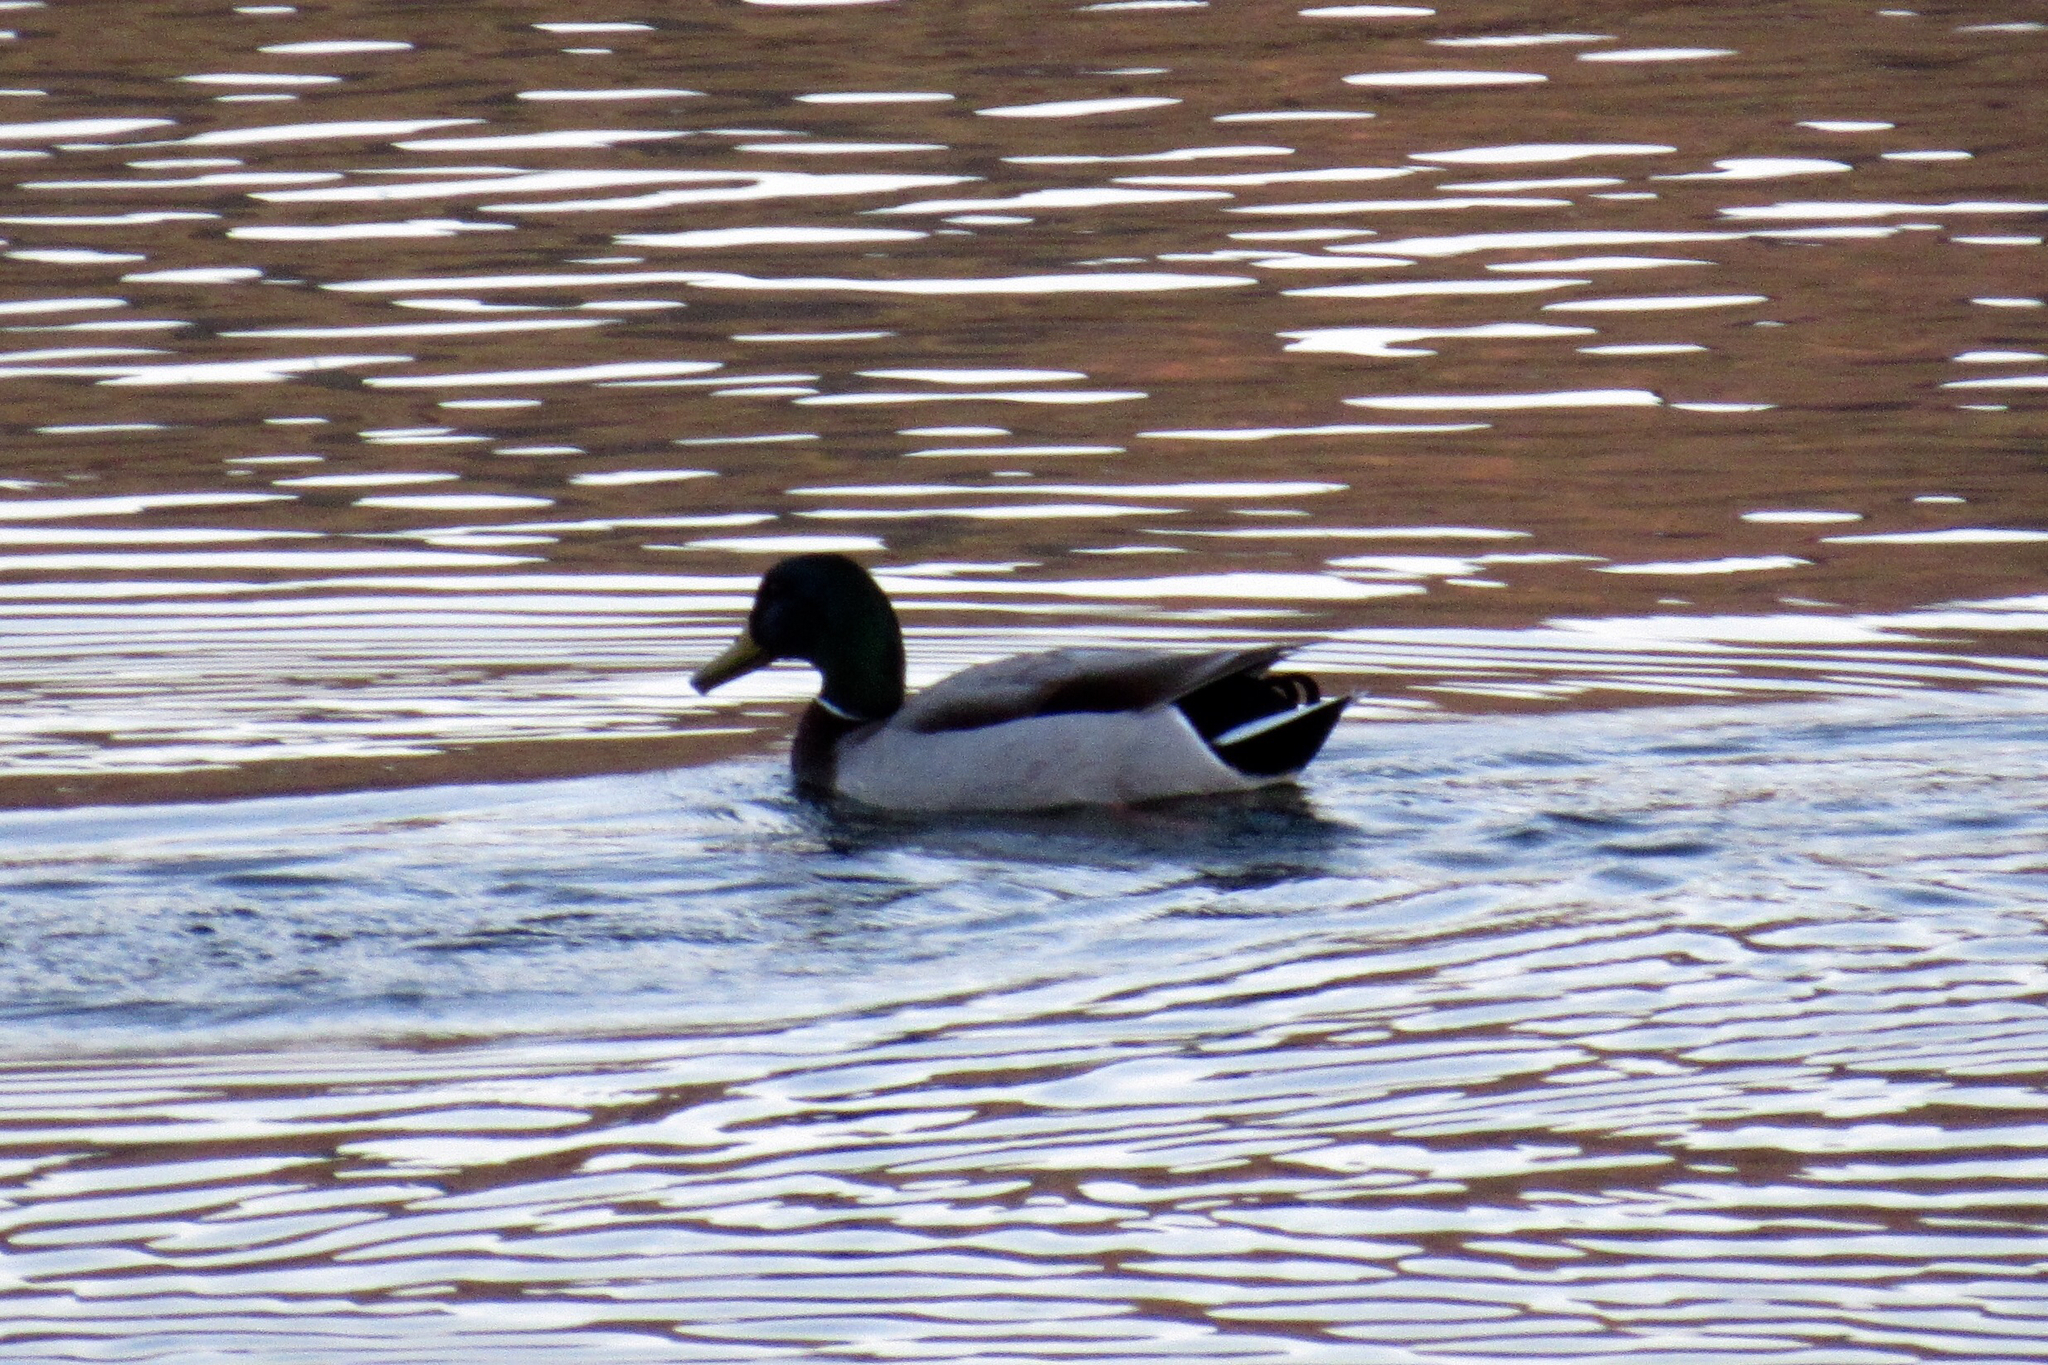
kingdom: Animalia
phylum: Chordata
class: Aves
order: Anseriformes
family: Anatidae
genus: Anas
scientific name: Anas platyrhynchos
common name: Mallard
